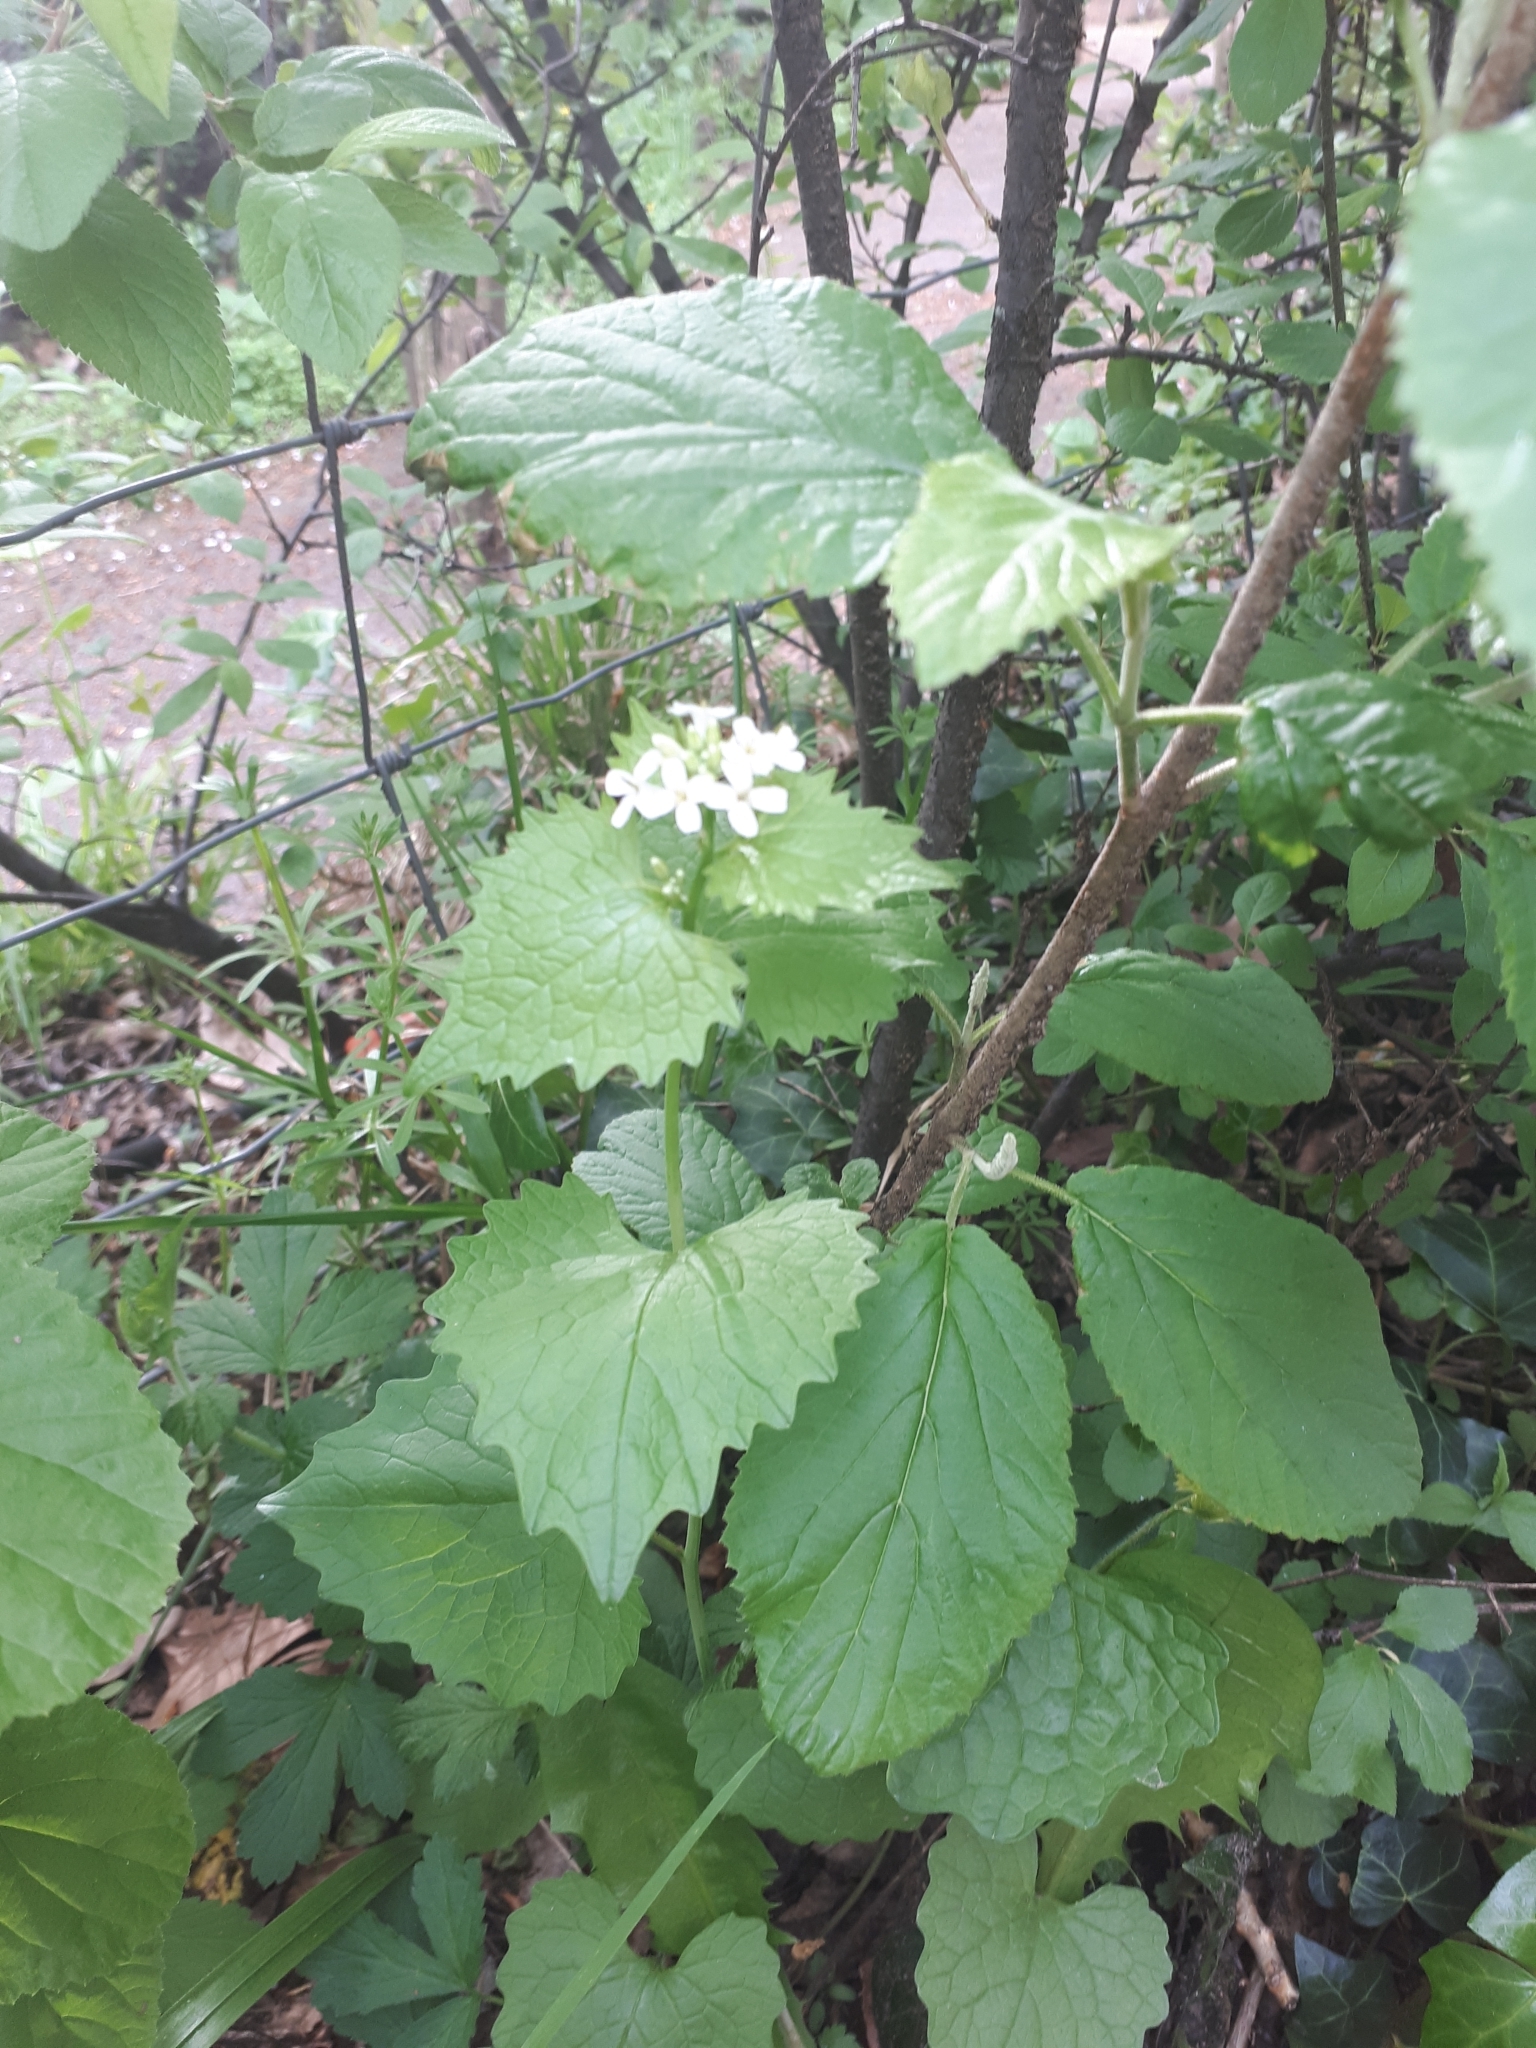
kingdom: Plantae
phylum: Tracheophyta
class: Magnoliopsida
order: Brassicales
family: Brassicaceae
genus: Alliaria
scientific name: Alliaria petiolata
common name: Garlic mustard
